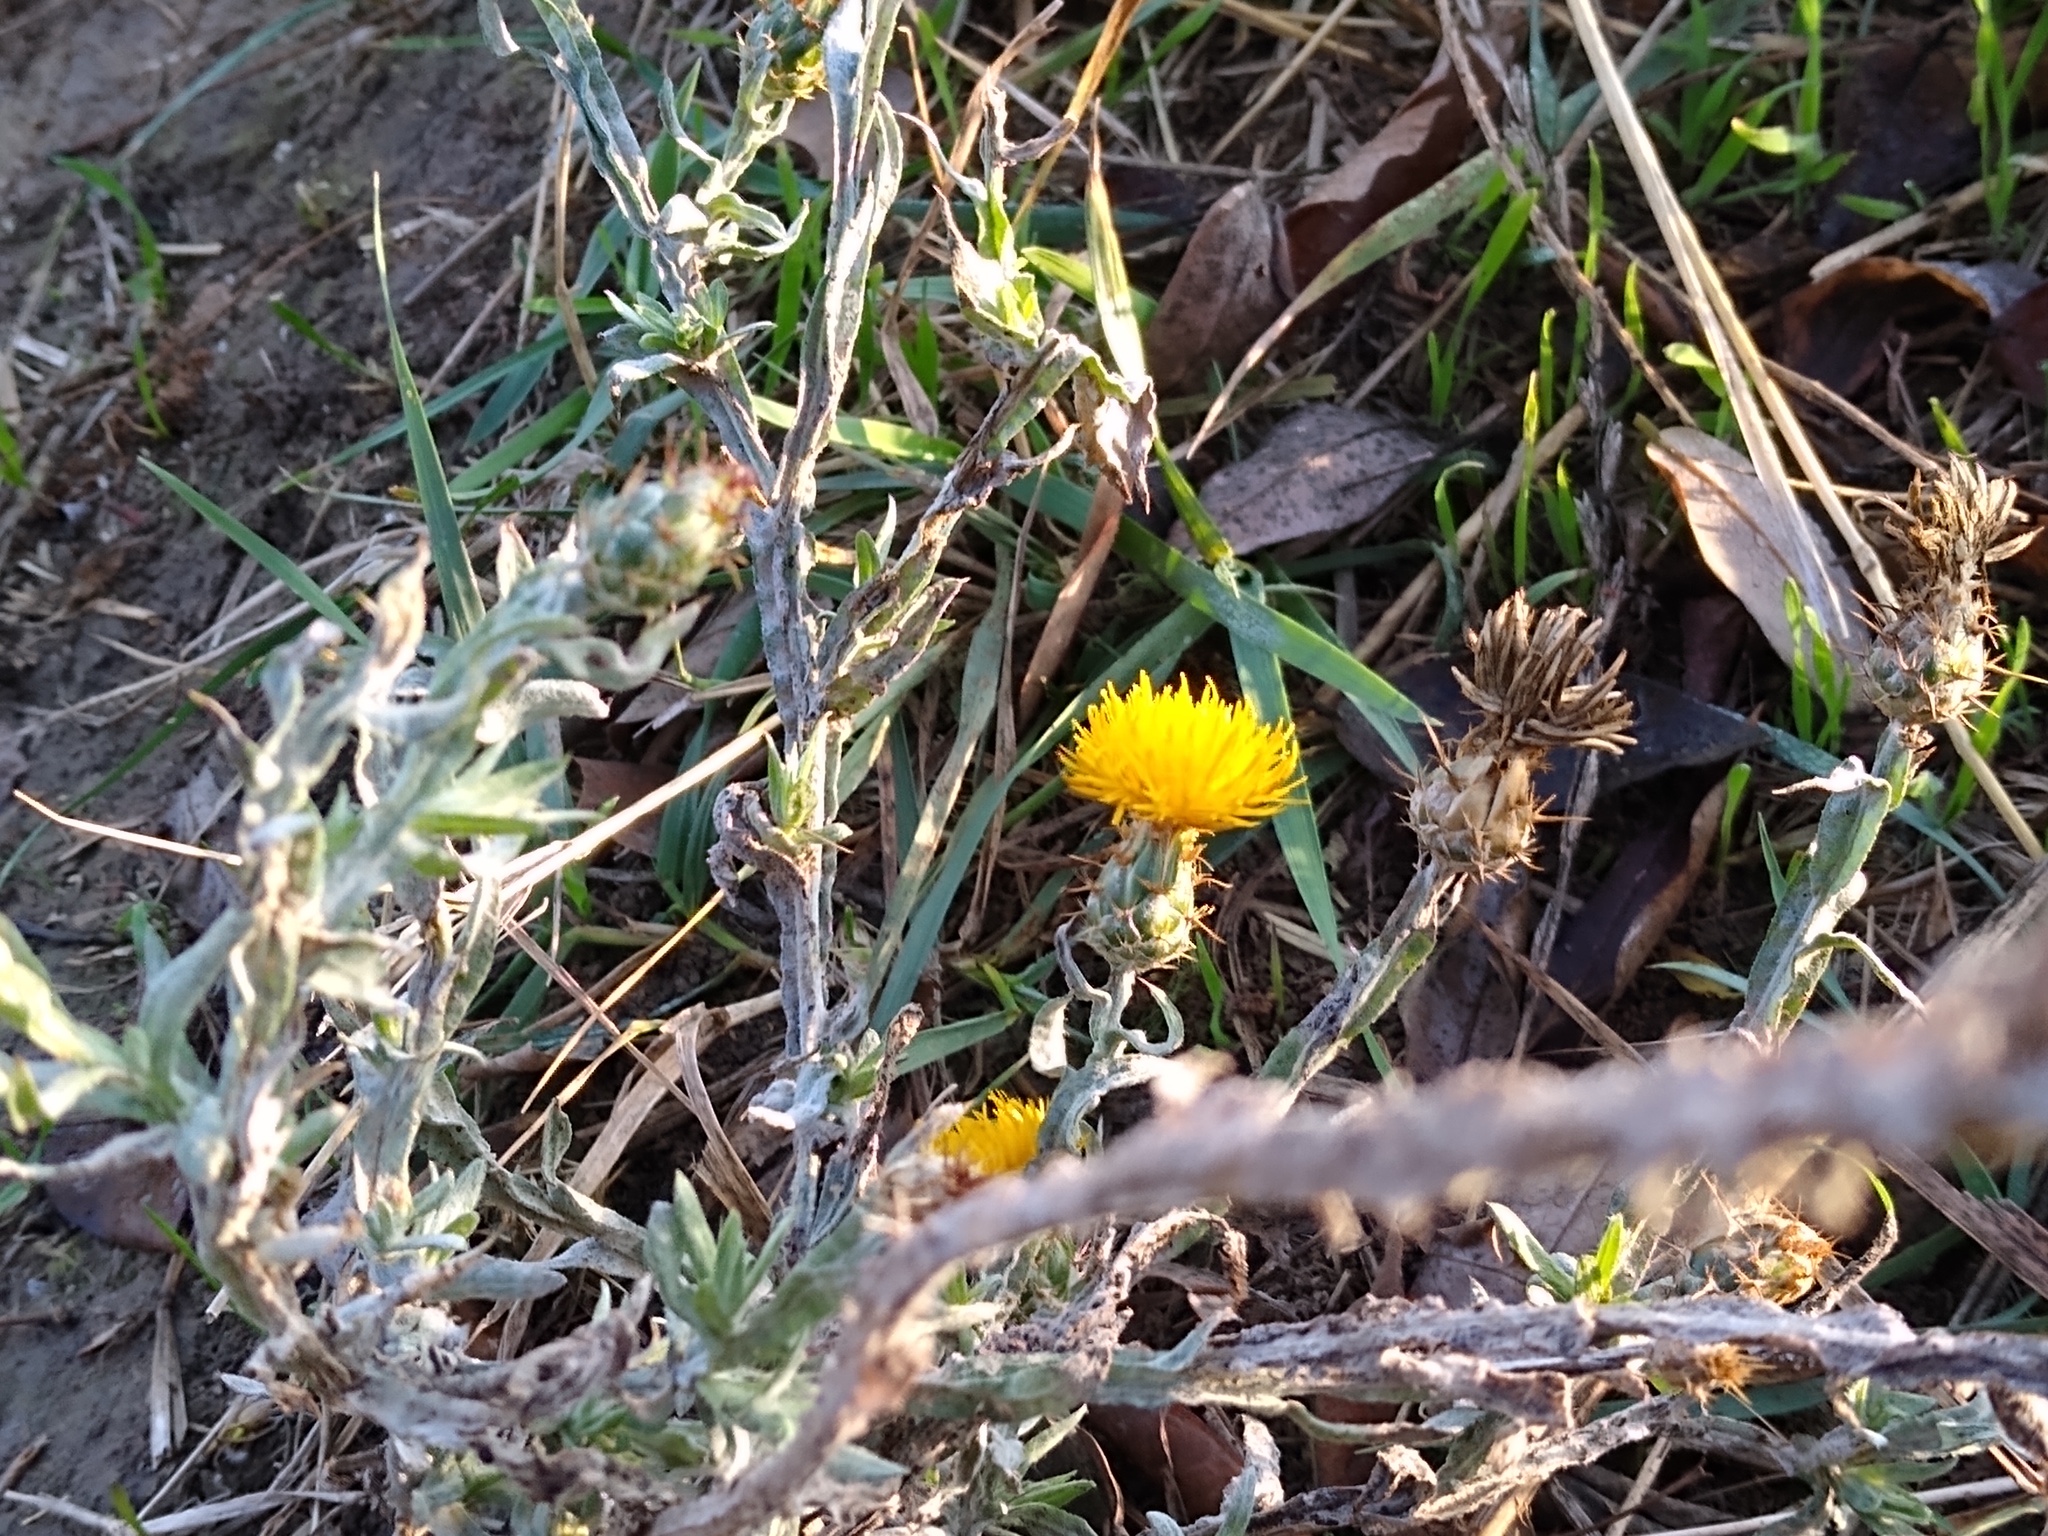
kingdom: Plantae
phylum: Tracheophyta
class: Magnoliopsida
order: Asterales
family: Asteraceae
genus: Centaurea
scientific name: Centaurea solstitialis
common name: Yellow star-thistle
